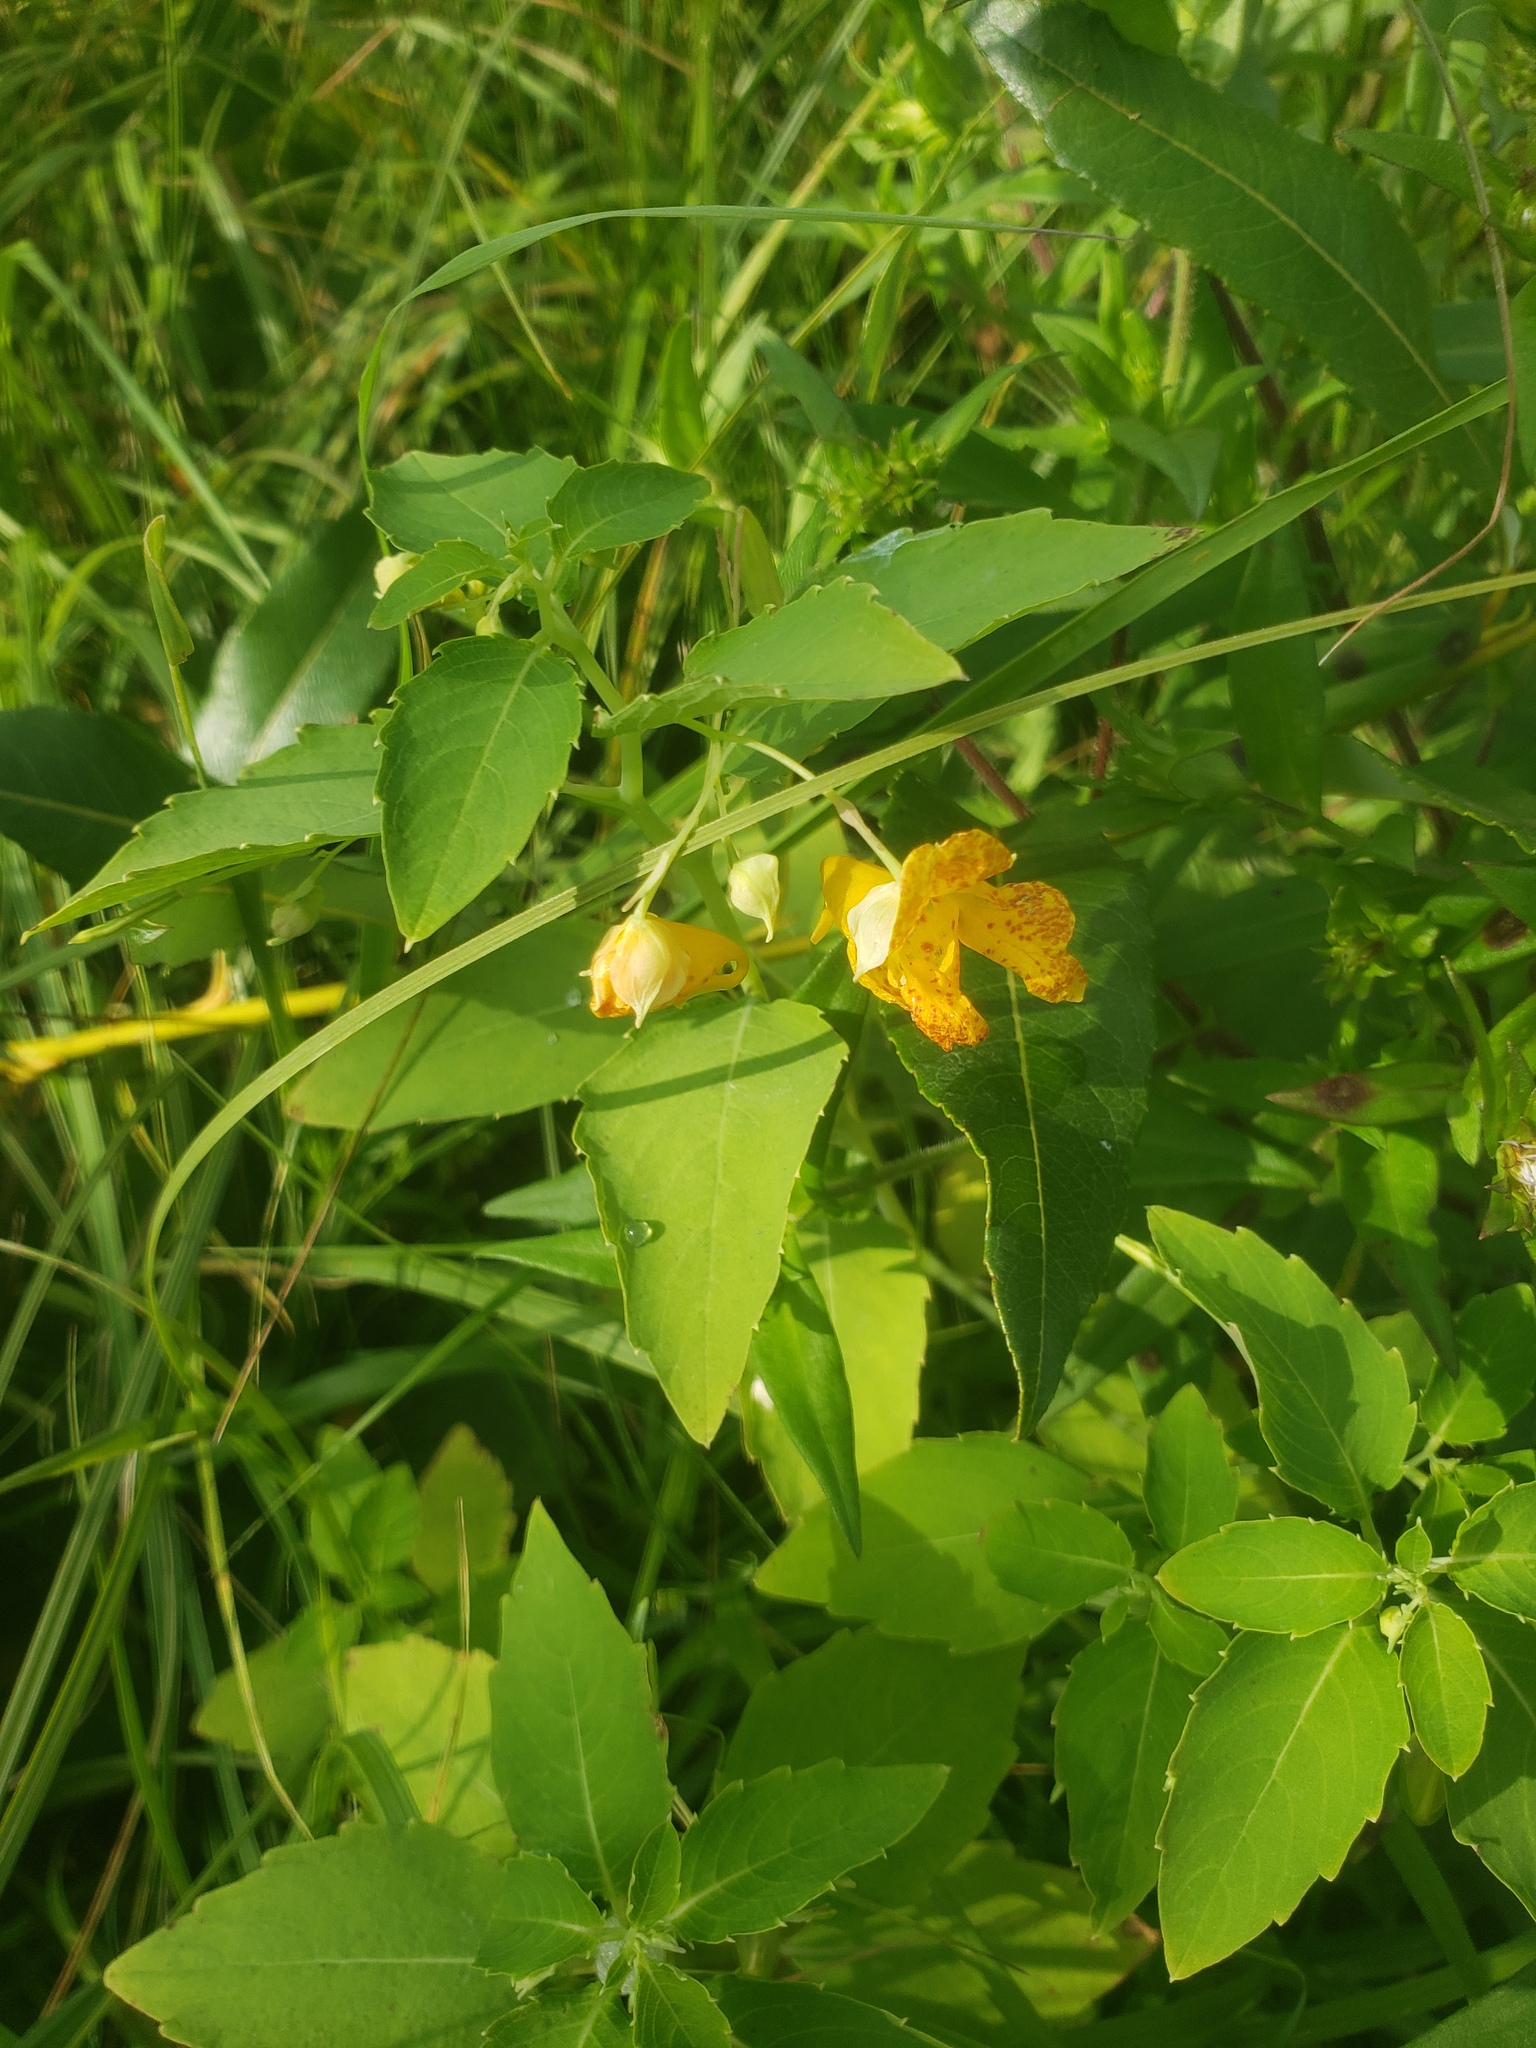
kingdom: Plantae
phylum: Tracheophyta
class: Magnoliopsida
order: Ericales
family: Balsaminaceae
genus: Impatiens
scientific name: Impatiens capensis
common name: Orange balsam
